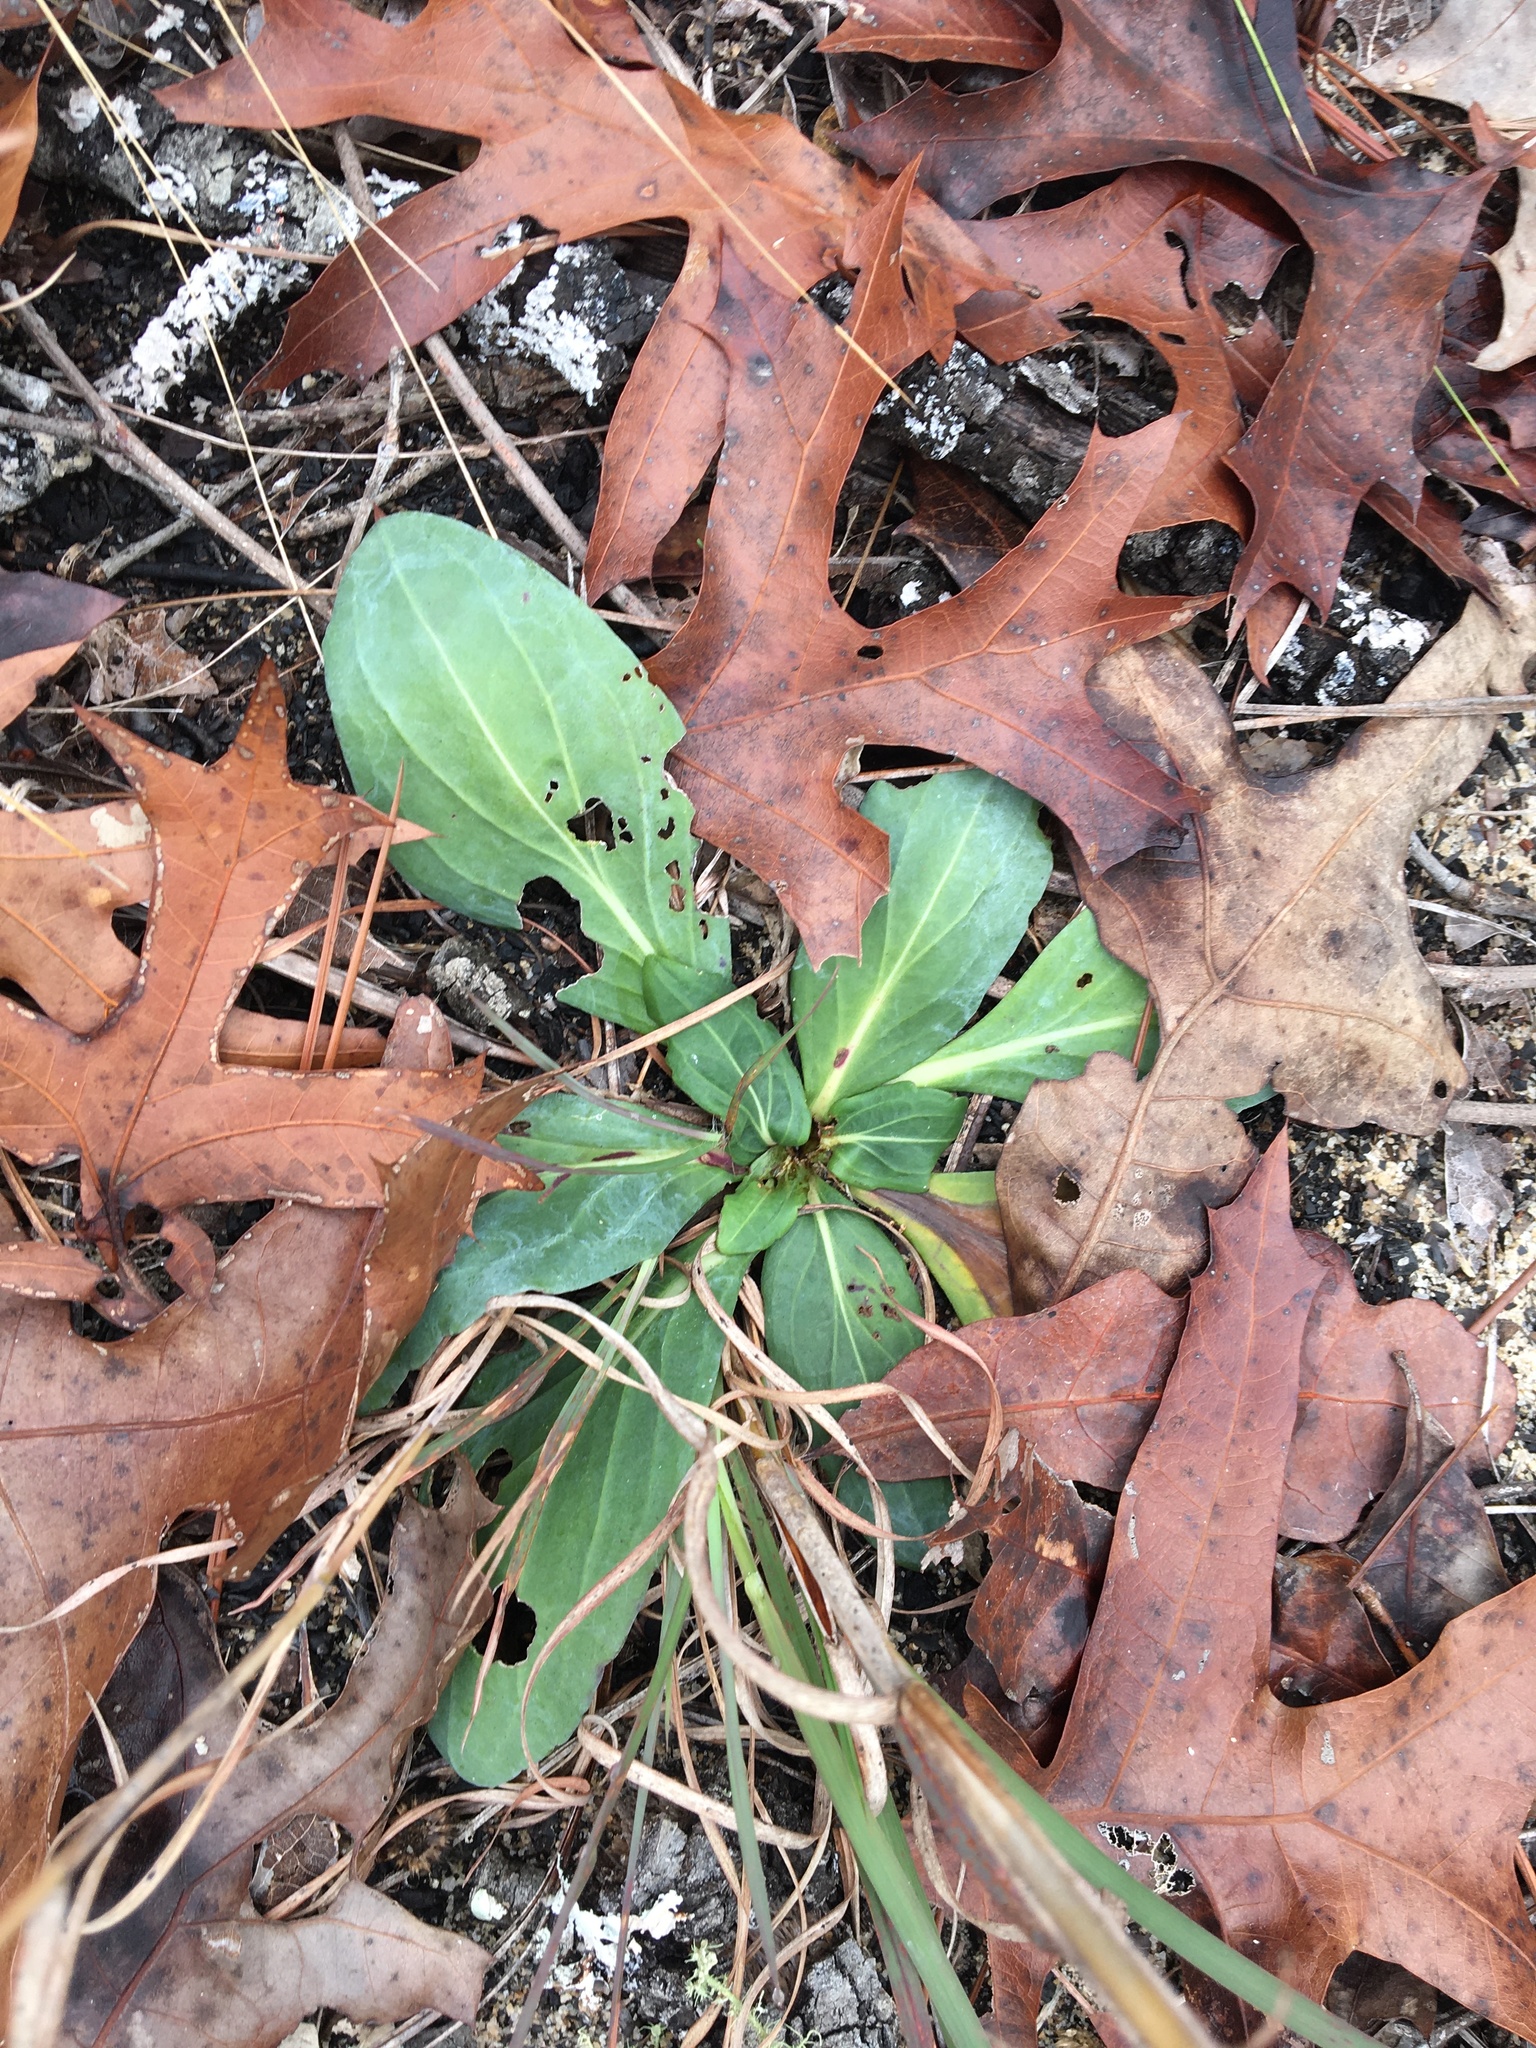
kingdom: Plantae
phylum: Tracheophyta
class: Magnoliopsida
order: Asterales
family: Asteraceae
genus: Carphephorus
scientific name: Carphephorus odoratissimus
